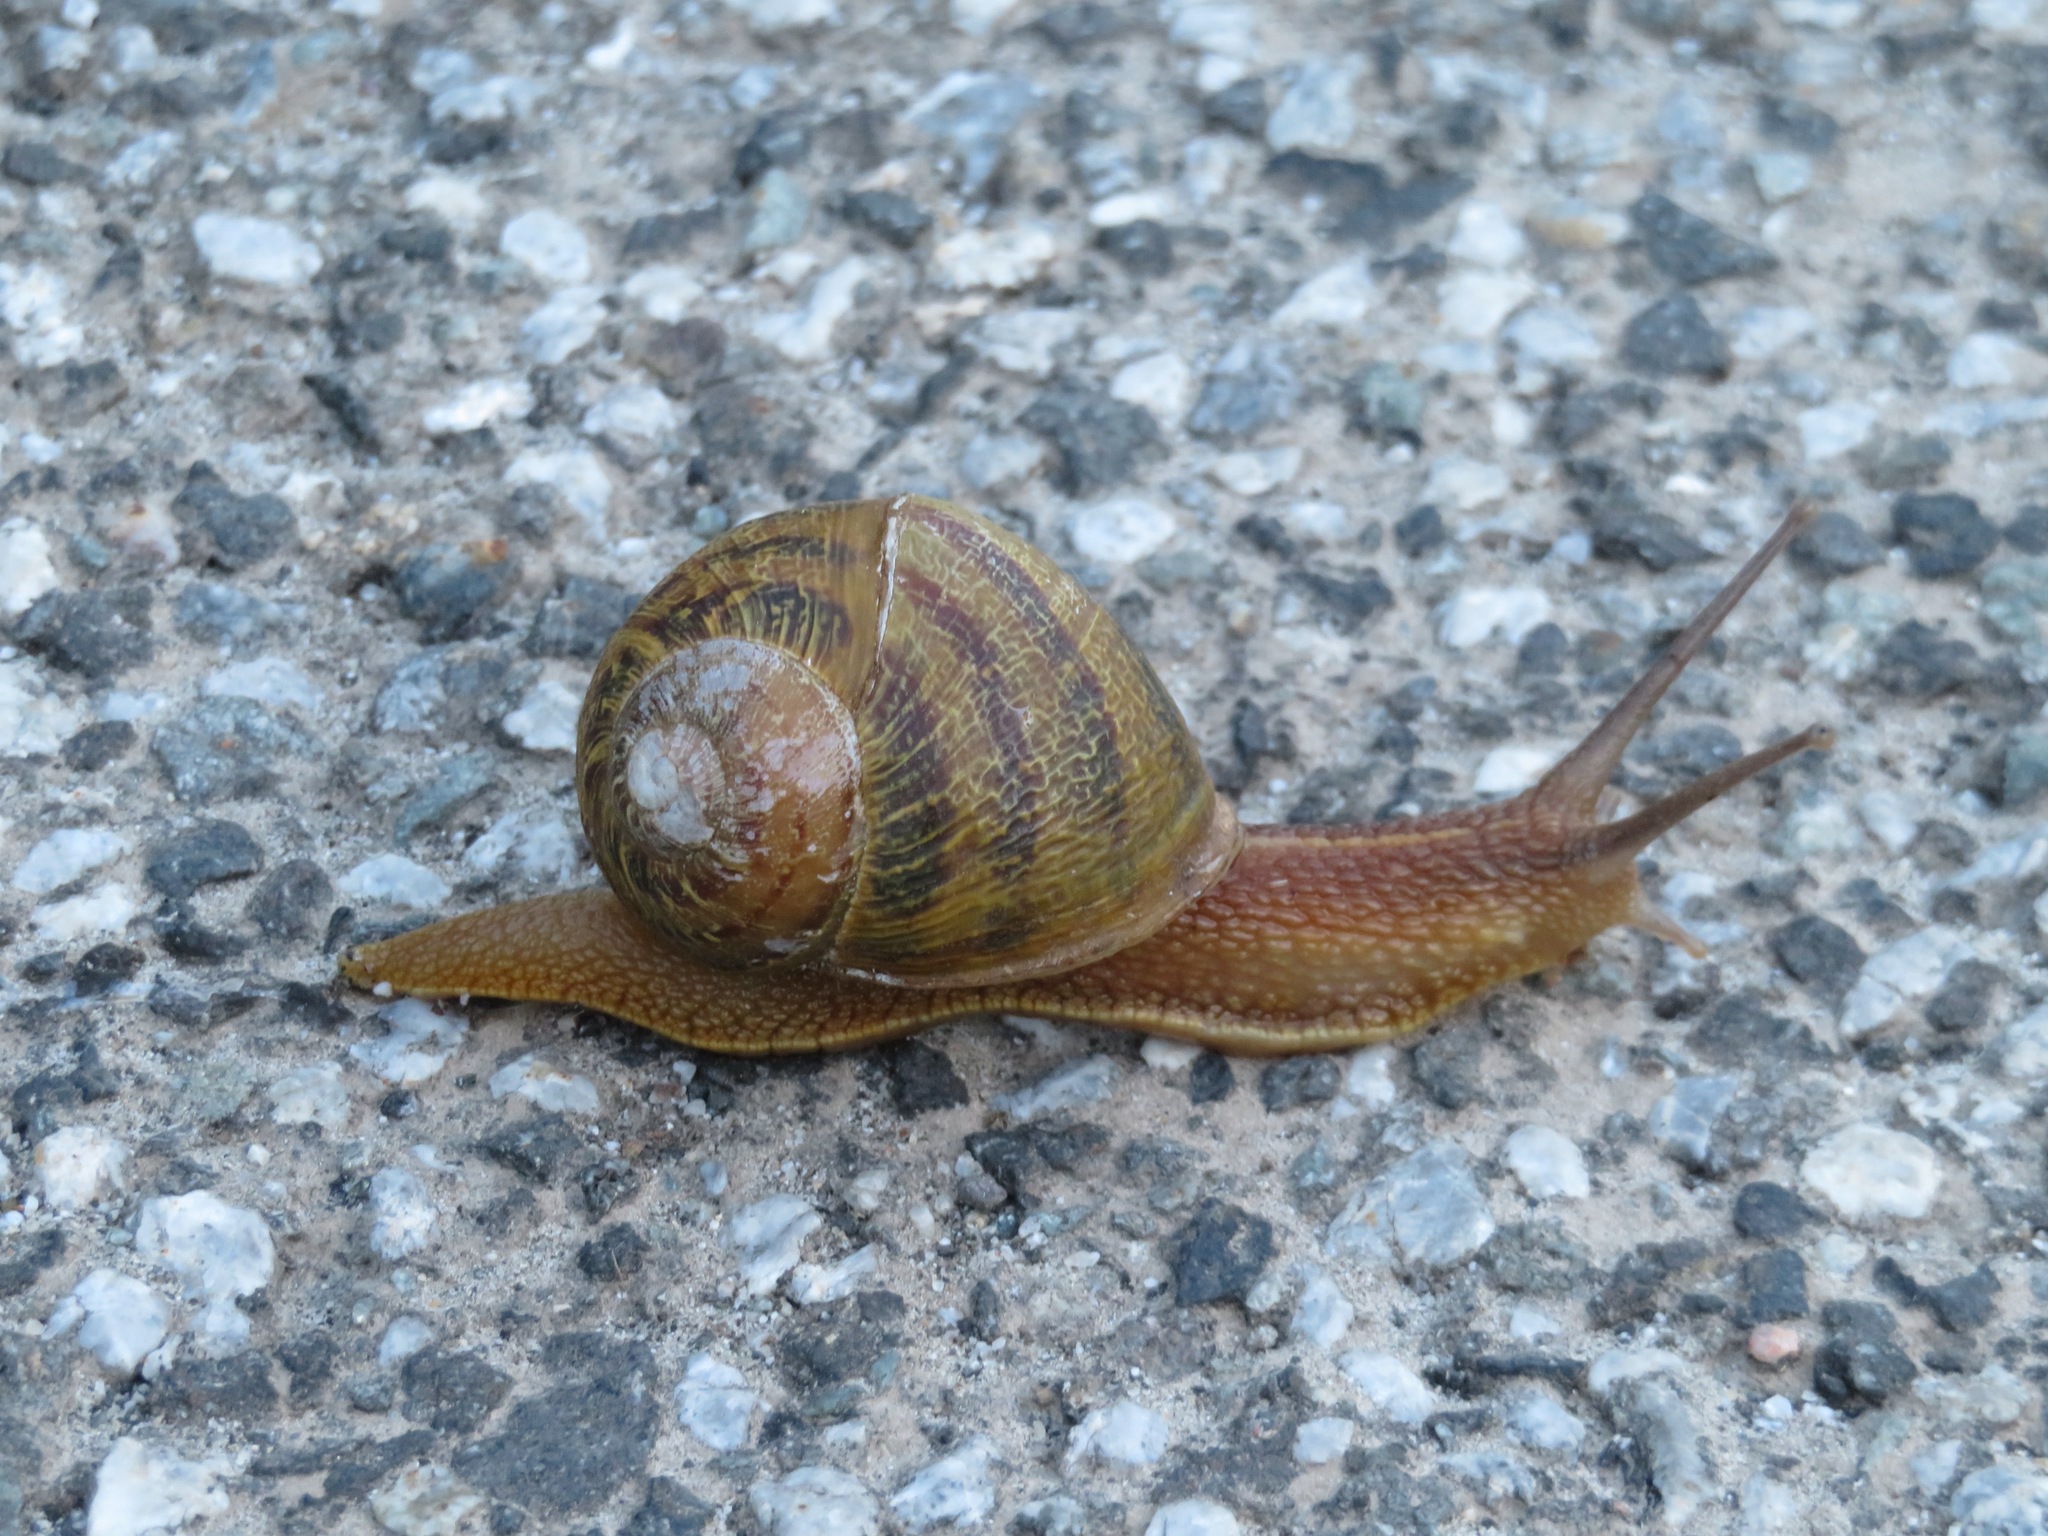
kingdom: Animalia
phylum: Mollusca
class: Gastropoda
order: Stylommatophora
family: Helicidae
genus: Cornu
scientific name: Cornu aspersum
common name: Brown garden snail
